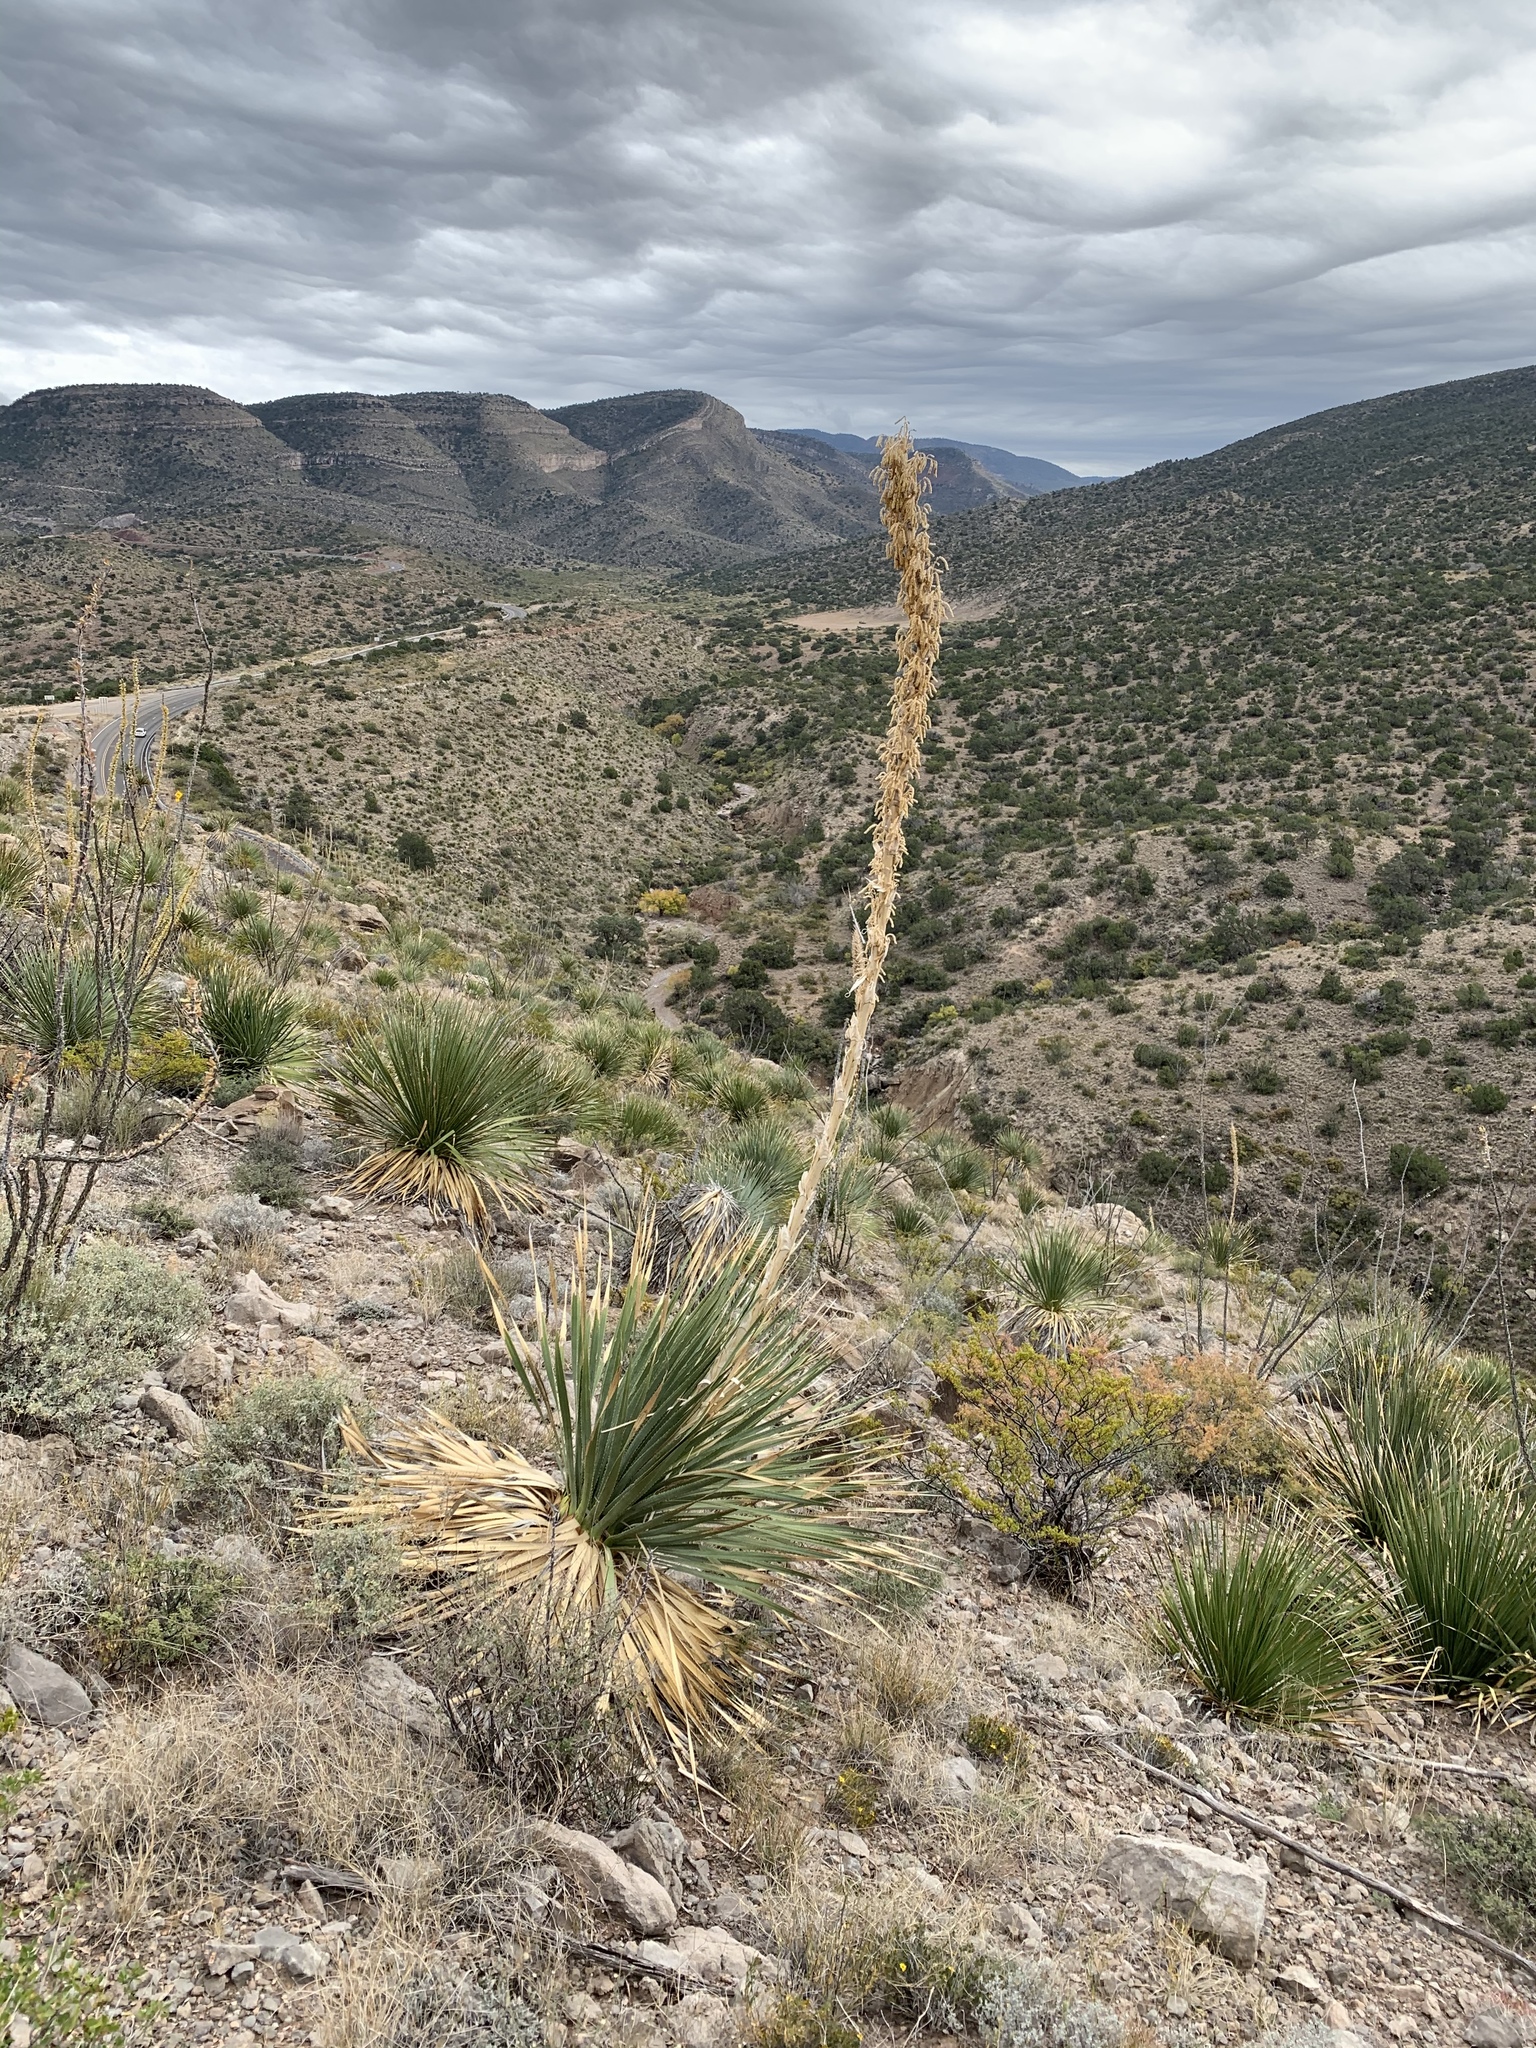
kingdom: Plantae
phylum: Tracheophyta
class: Liliopsida
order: Asparagales
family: Asparagaceae
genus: Dasylirion
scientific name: Dasylirion wheeleri
